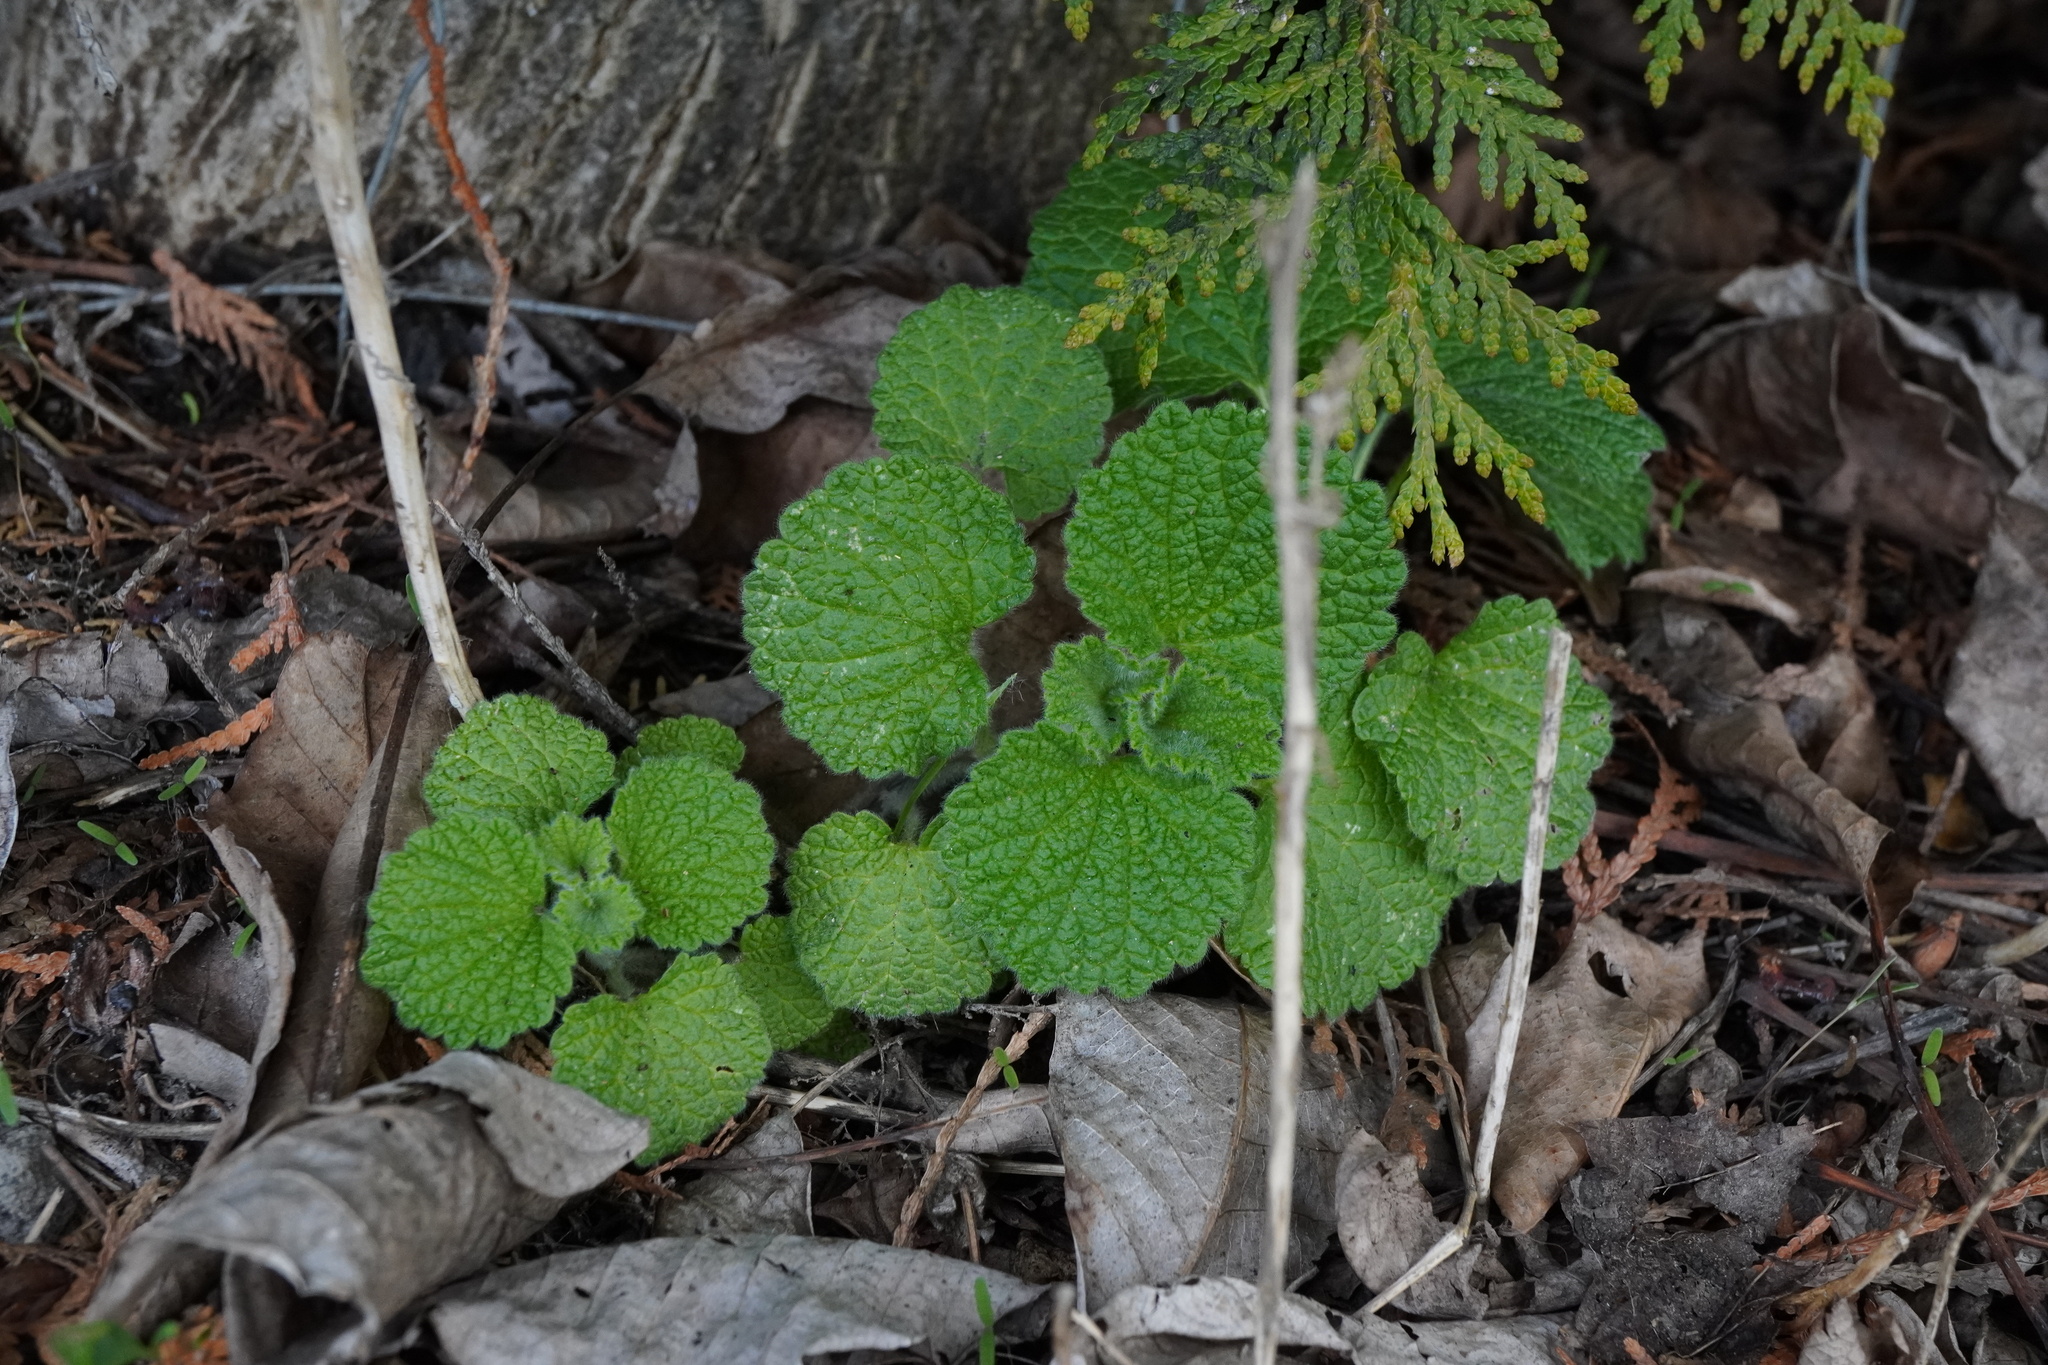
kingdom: Plantae
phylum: Tracheophyta
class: Magnoliopsida
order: Lamiales
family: Lamiaceae
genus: Ballota
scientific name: Ballota nigra
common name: Black horehound
